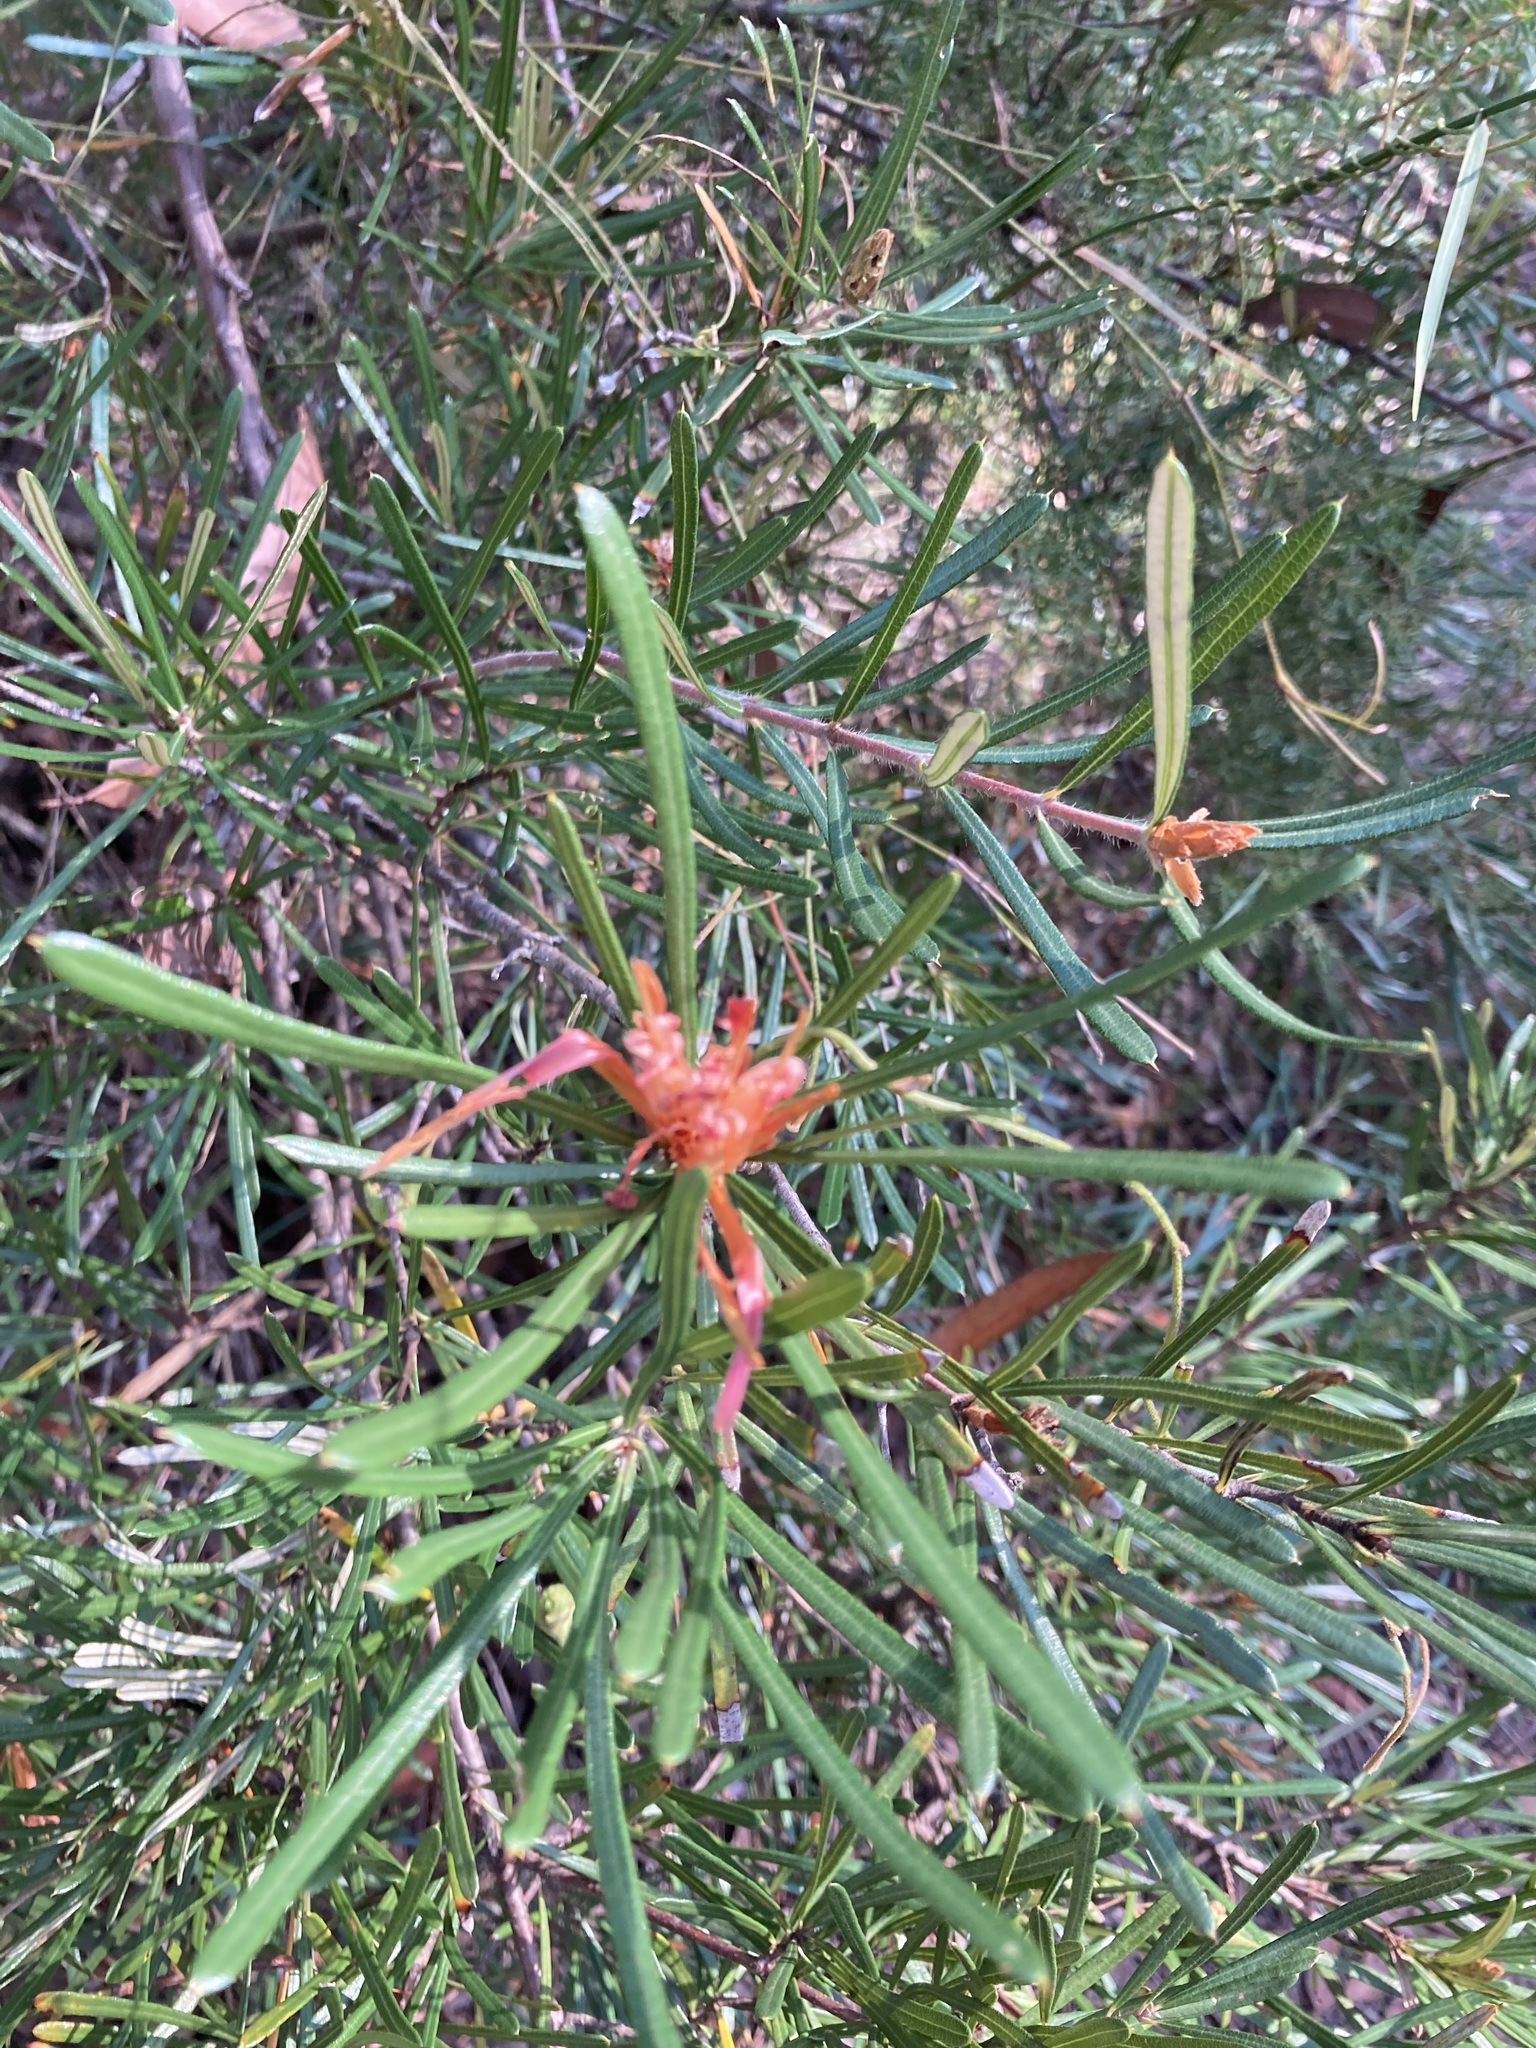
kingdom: Plantae
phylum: Tracheophyta
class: Magnoliopsida
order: Proteales
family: Proteaceae
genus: Lambertia
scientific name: Lambertia formosa
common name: Mountain-devil
